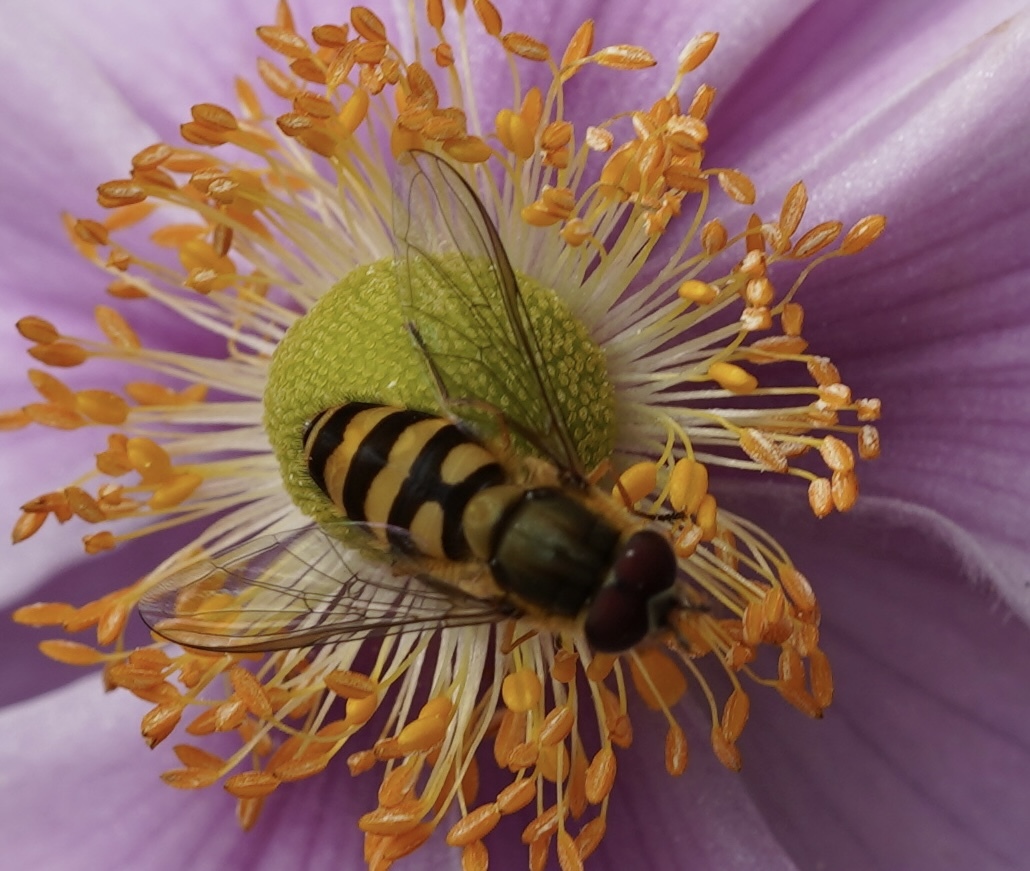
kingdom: Animalia
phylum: Arthropoda
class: Insecta
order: Diptera
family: Syrphidae
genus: Syrphus
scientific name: Syrphus
